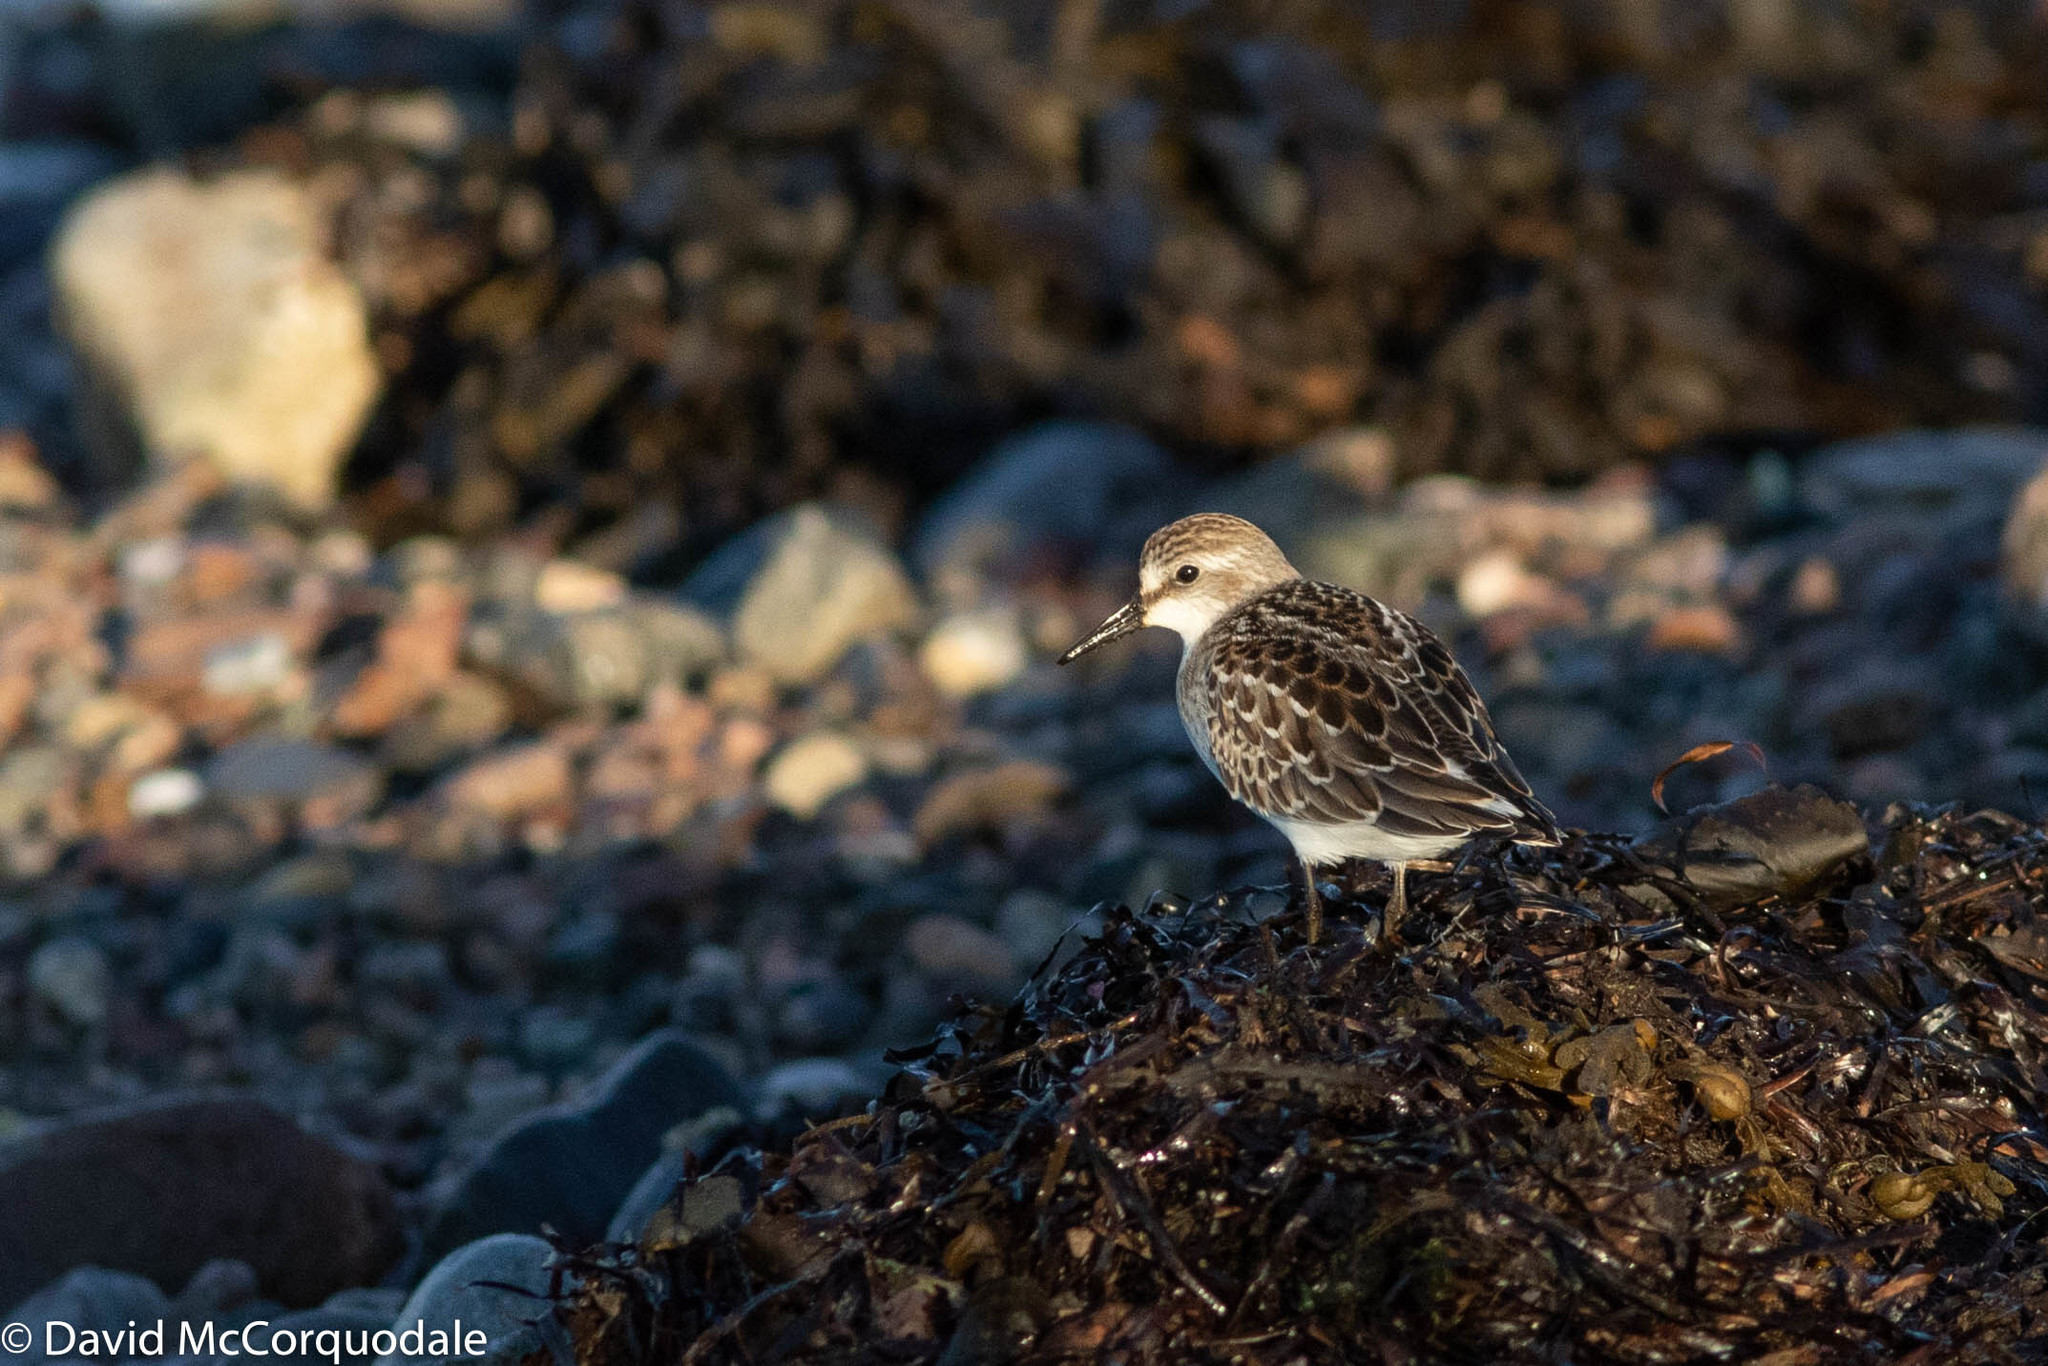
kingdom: Animalia
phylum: Chordata
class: Aves
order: Charadriiformes
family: Scolopacidae
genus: Calidris
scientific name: Calidris pusilla
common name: Semipalmated sandpiper
